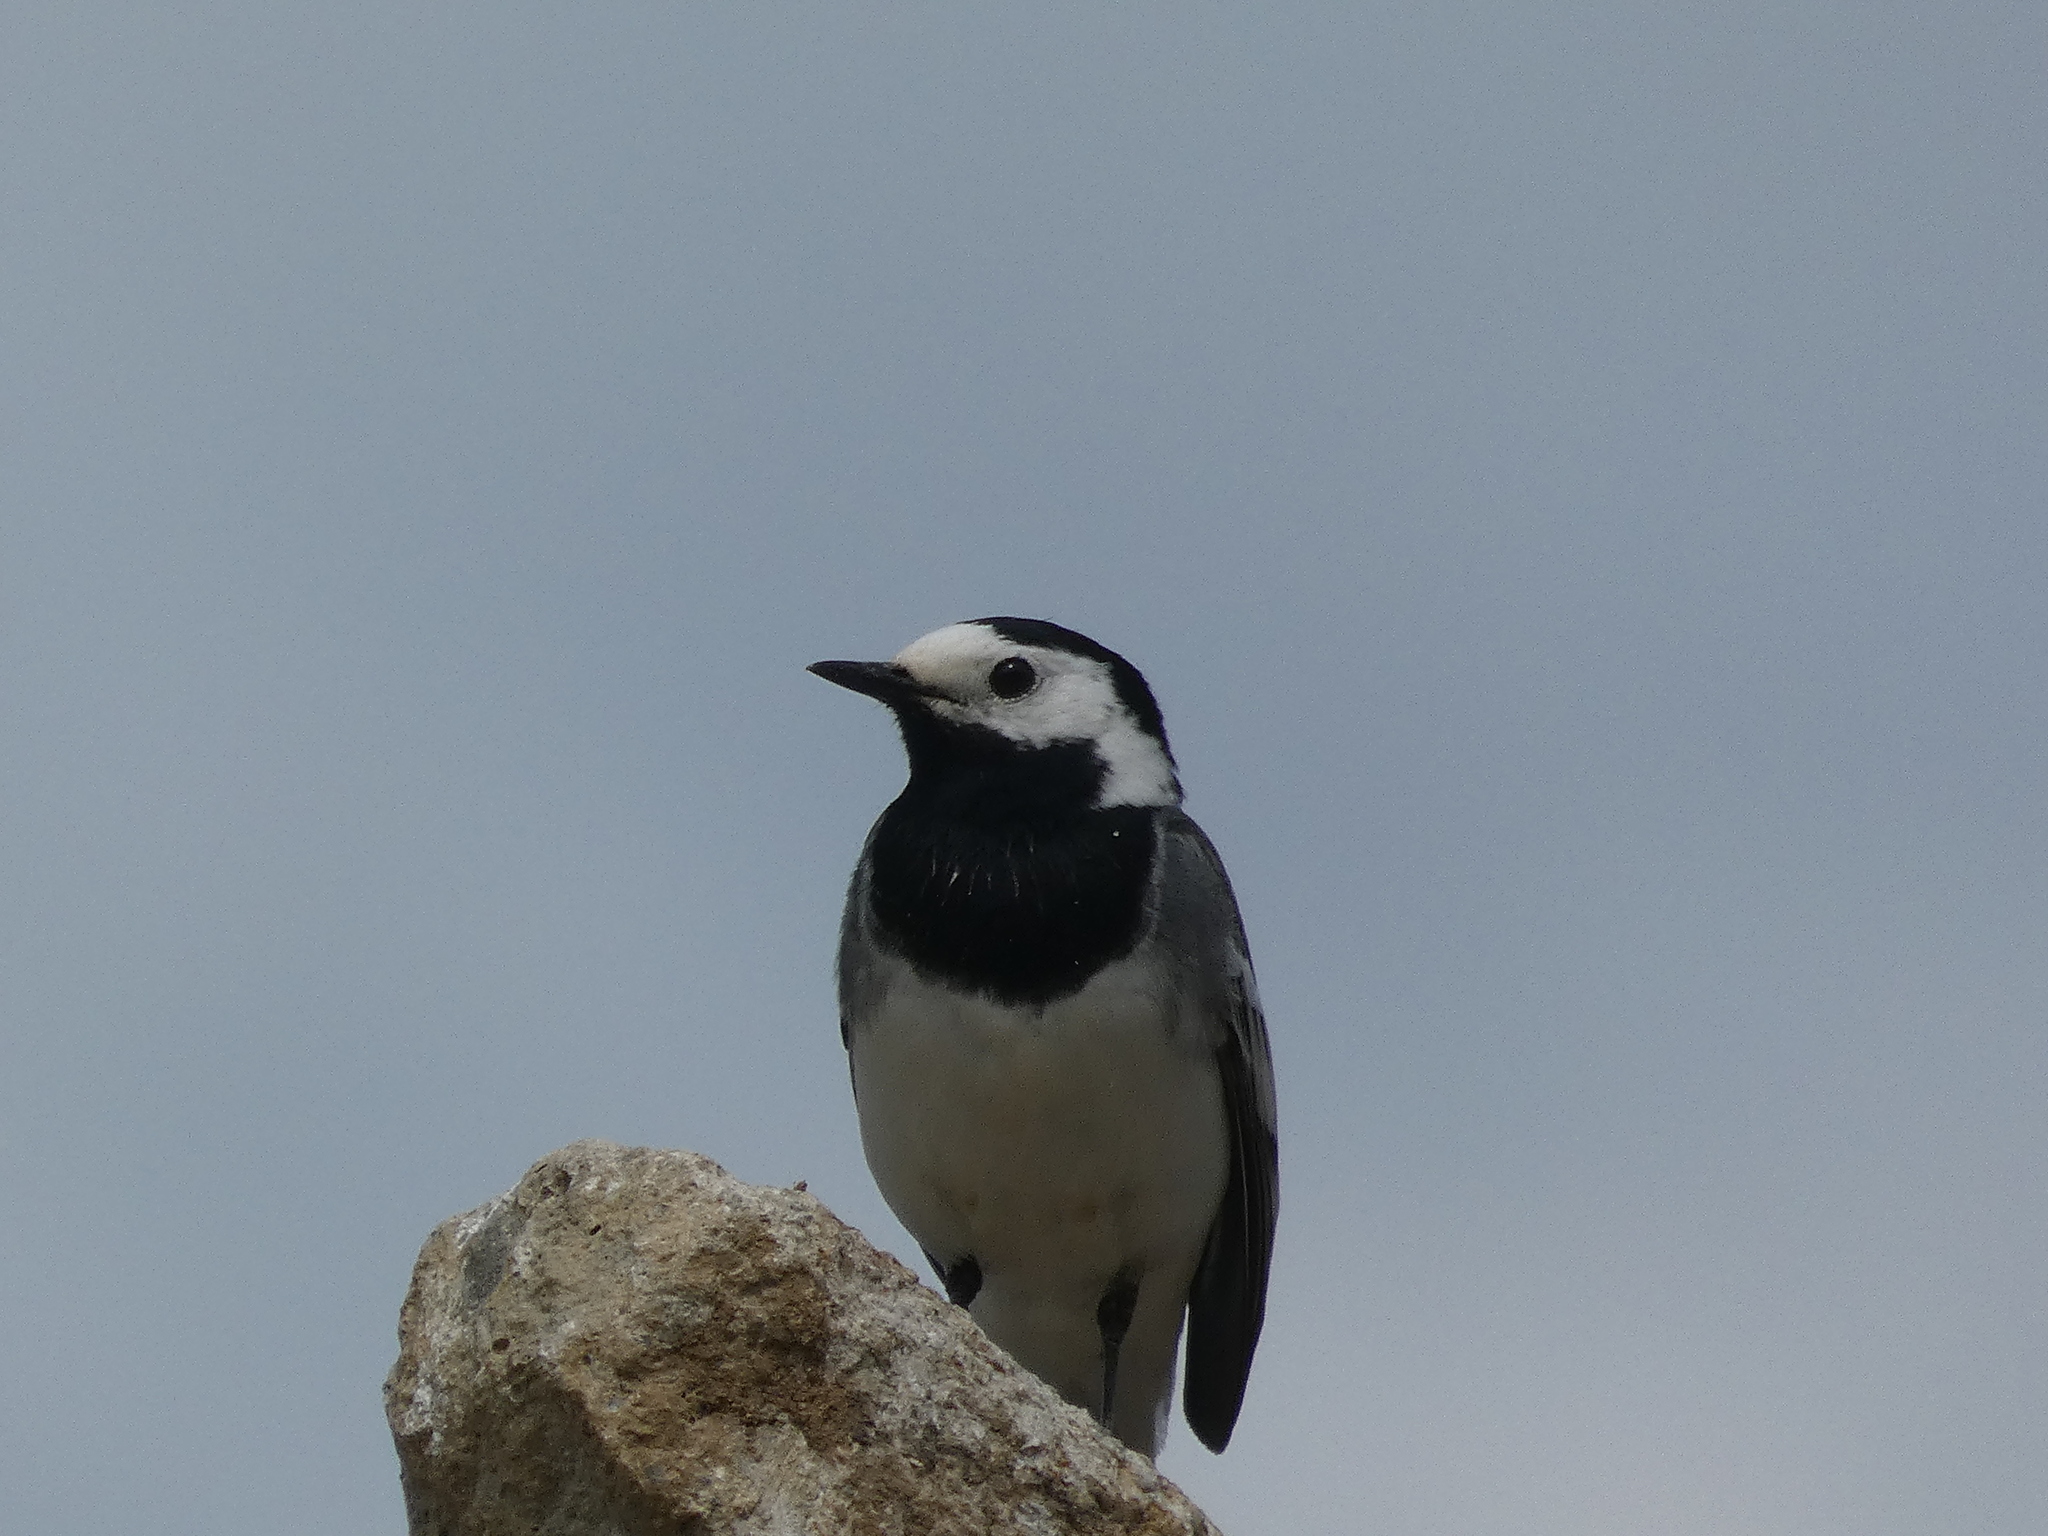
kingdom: Animalia
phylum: Chordata
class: Aves
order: Passeriformes
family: Motacillidae
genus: Motacilla
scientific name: Motacilla alba
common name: White wagtail
